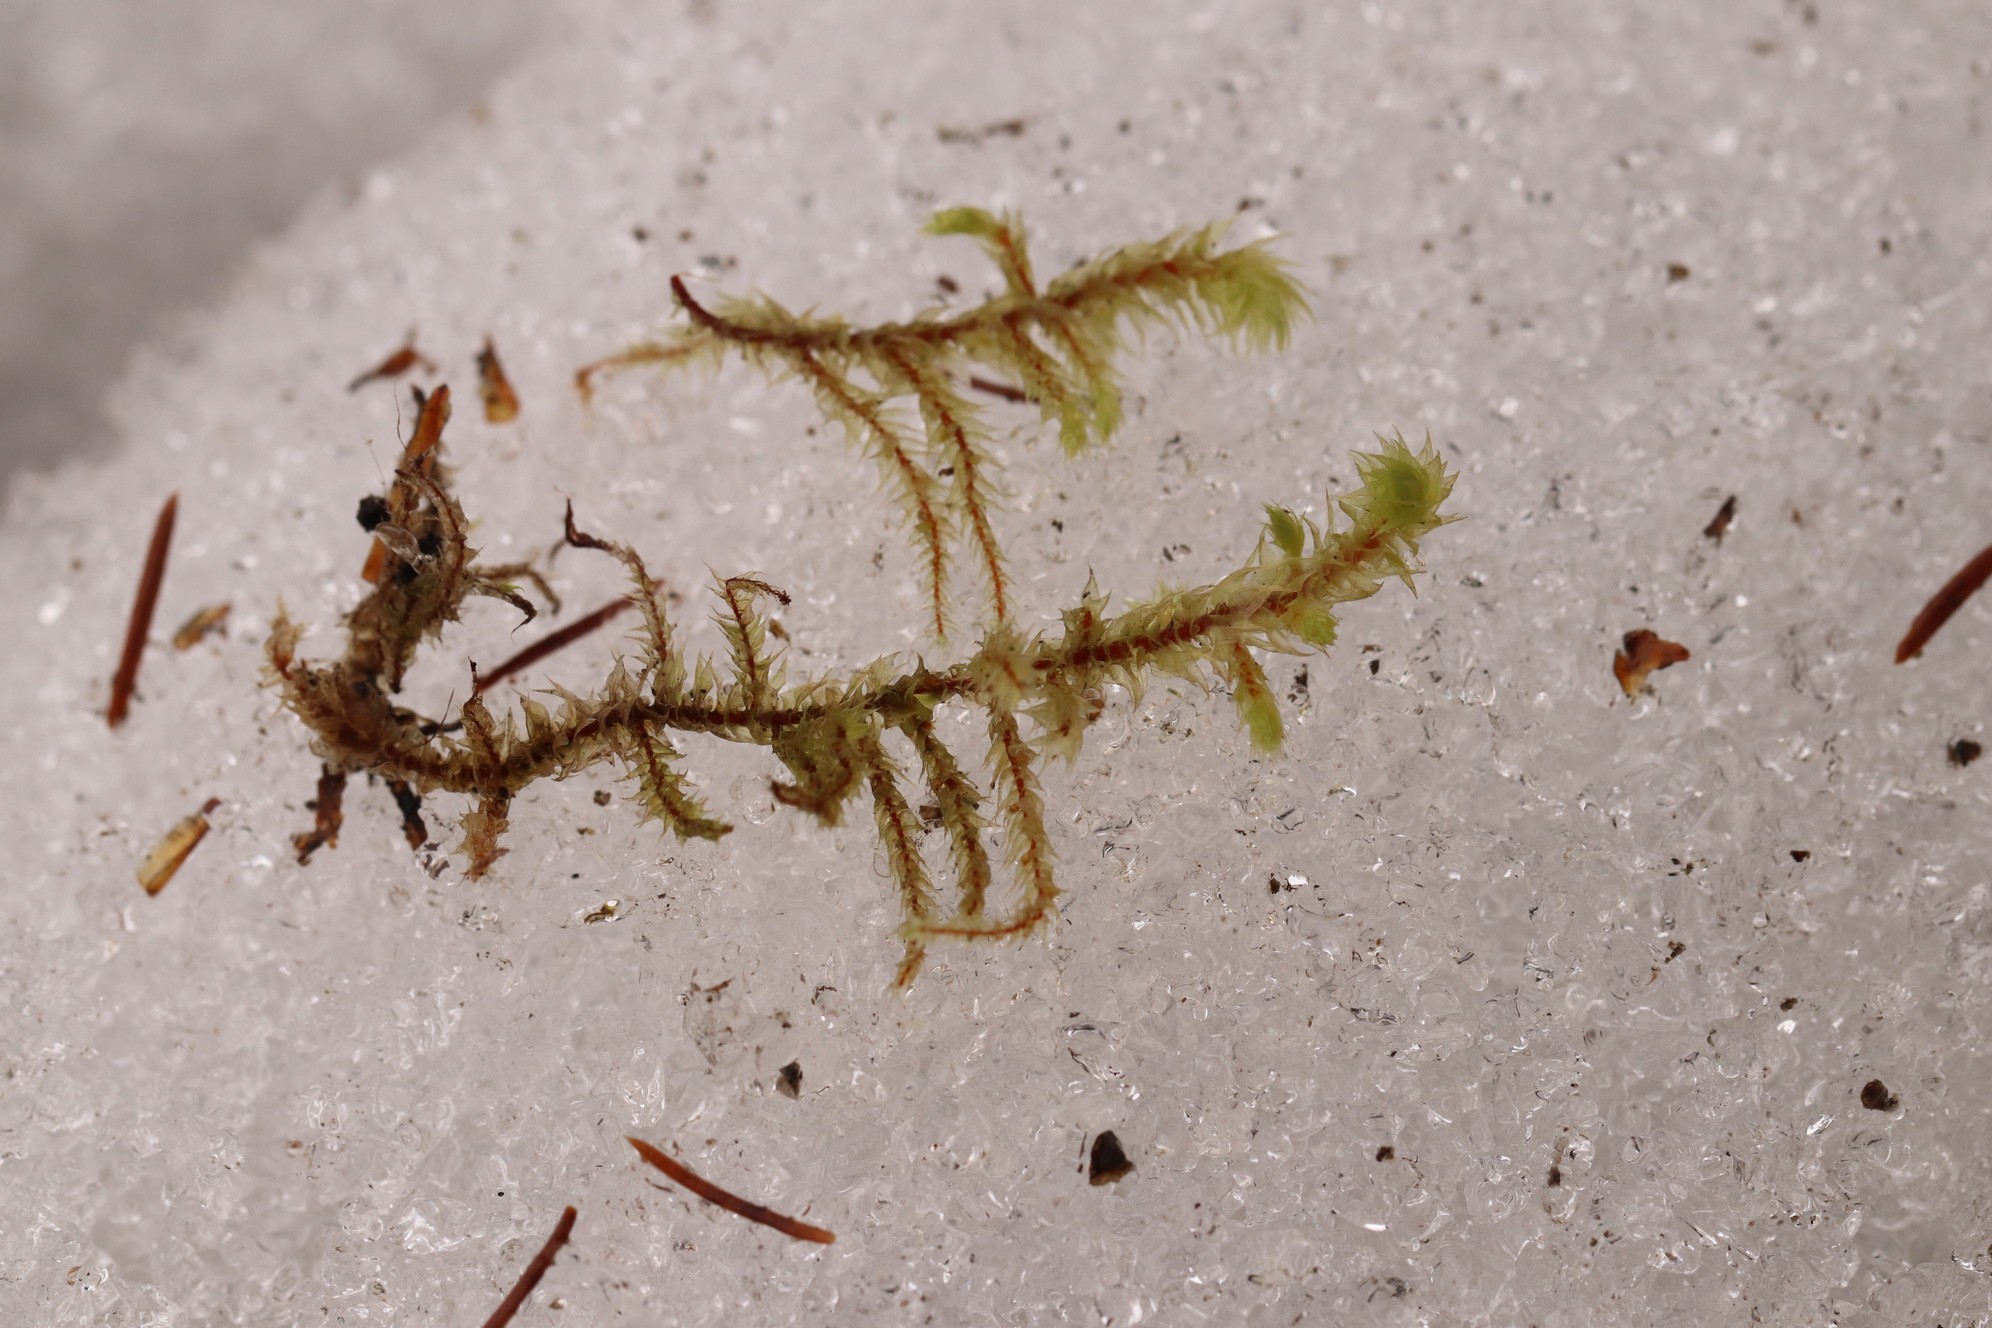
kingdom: Plantae
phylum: Bryophyta
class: Bryopsida
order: Hypnales
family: Hylocomiaceae
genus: Hylocomiadelphus
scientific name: Hylocomiadelphus triquetrus
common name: Rough goose neck moss
